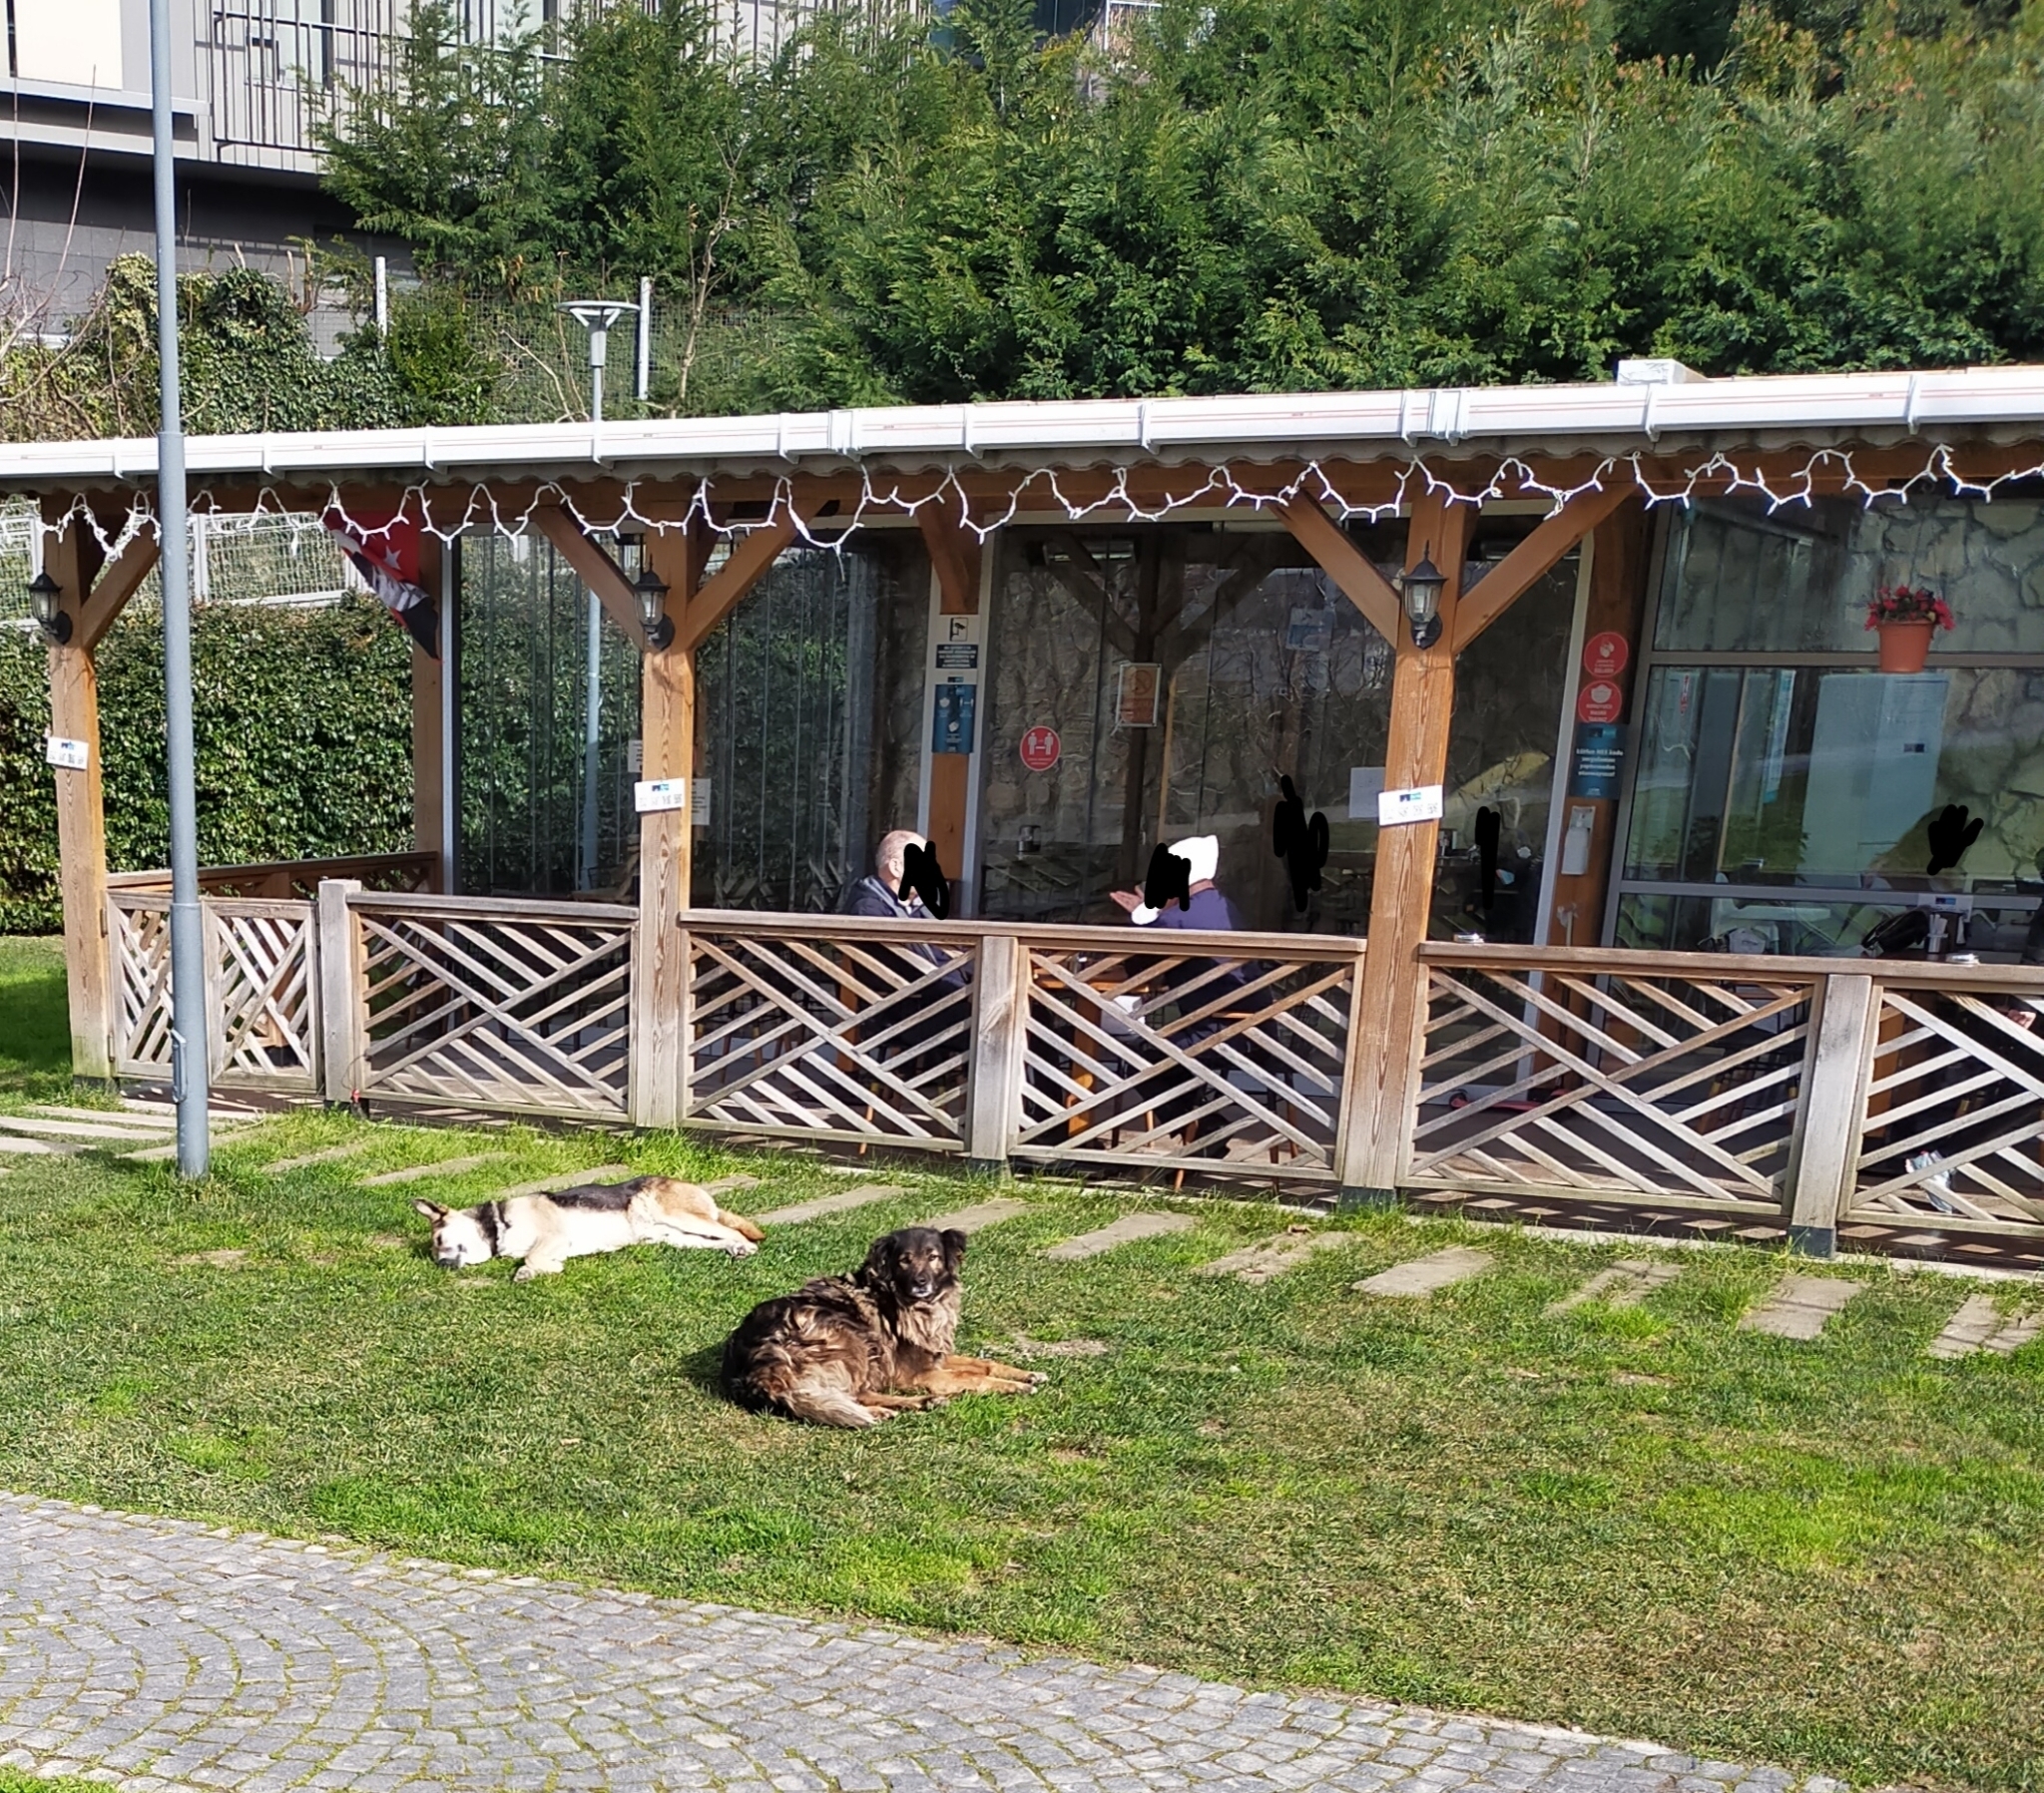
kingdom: Animalia
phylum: Chordata
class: Mammalia
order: Carnivora
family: Canidae
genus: Canis
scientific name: Canis lupus
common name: Gray wolf
